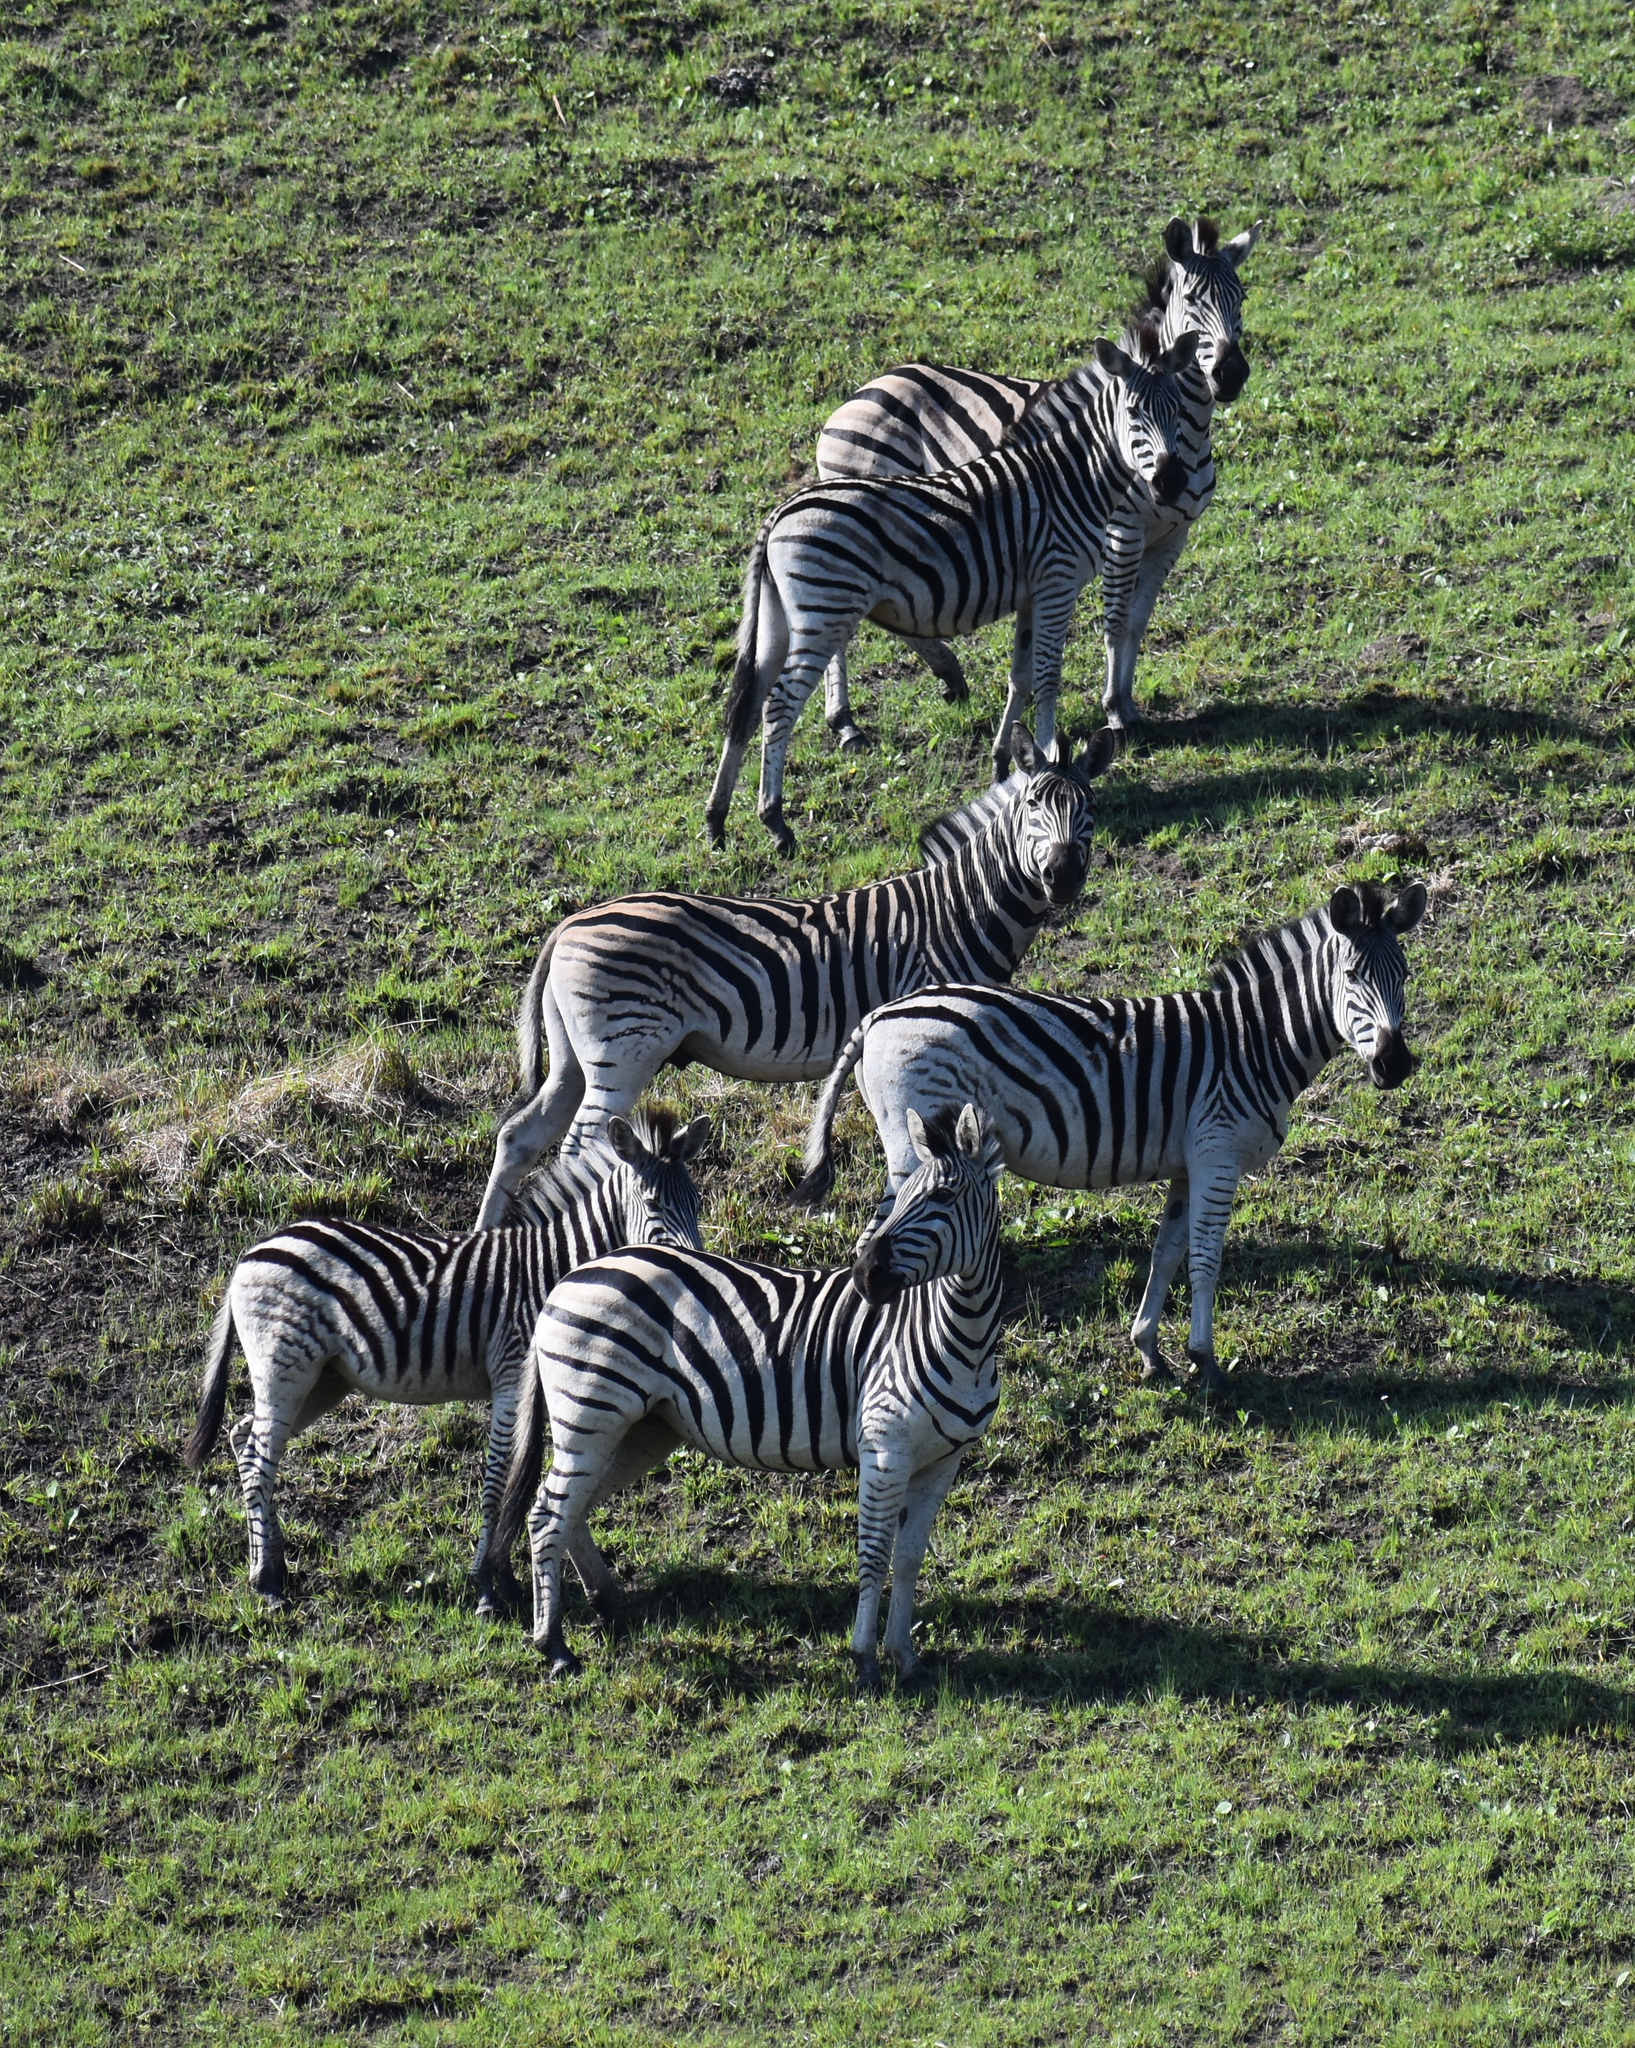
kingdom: Animalia
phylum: Chordata
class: Mammalia
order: Perissodactyla
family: Equidae
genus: Equus
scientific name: Equus quagga
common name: Plains zebra
